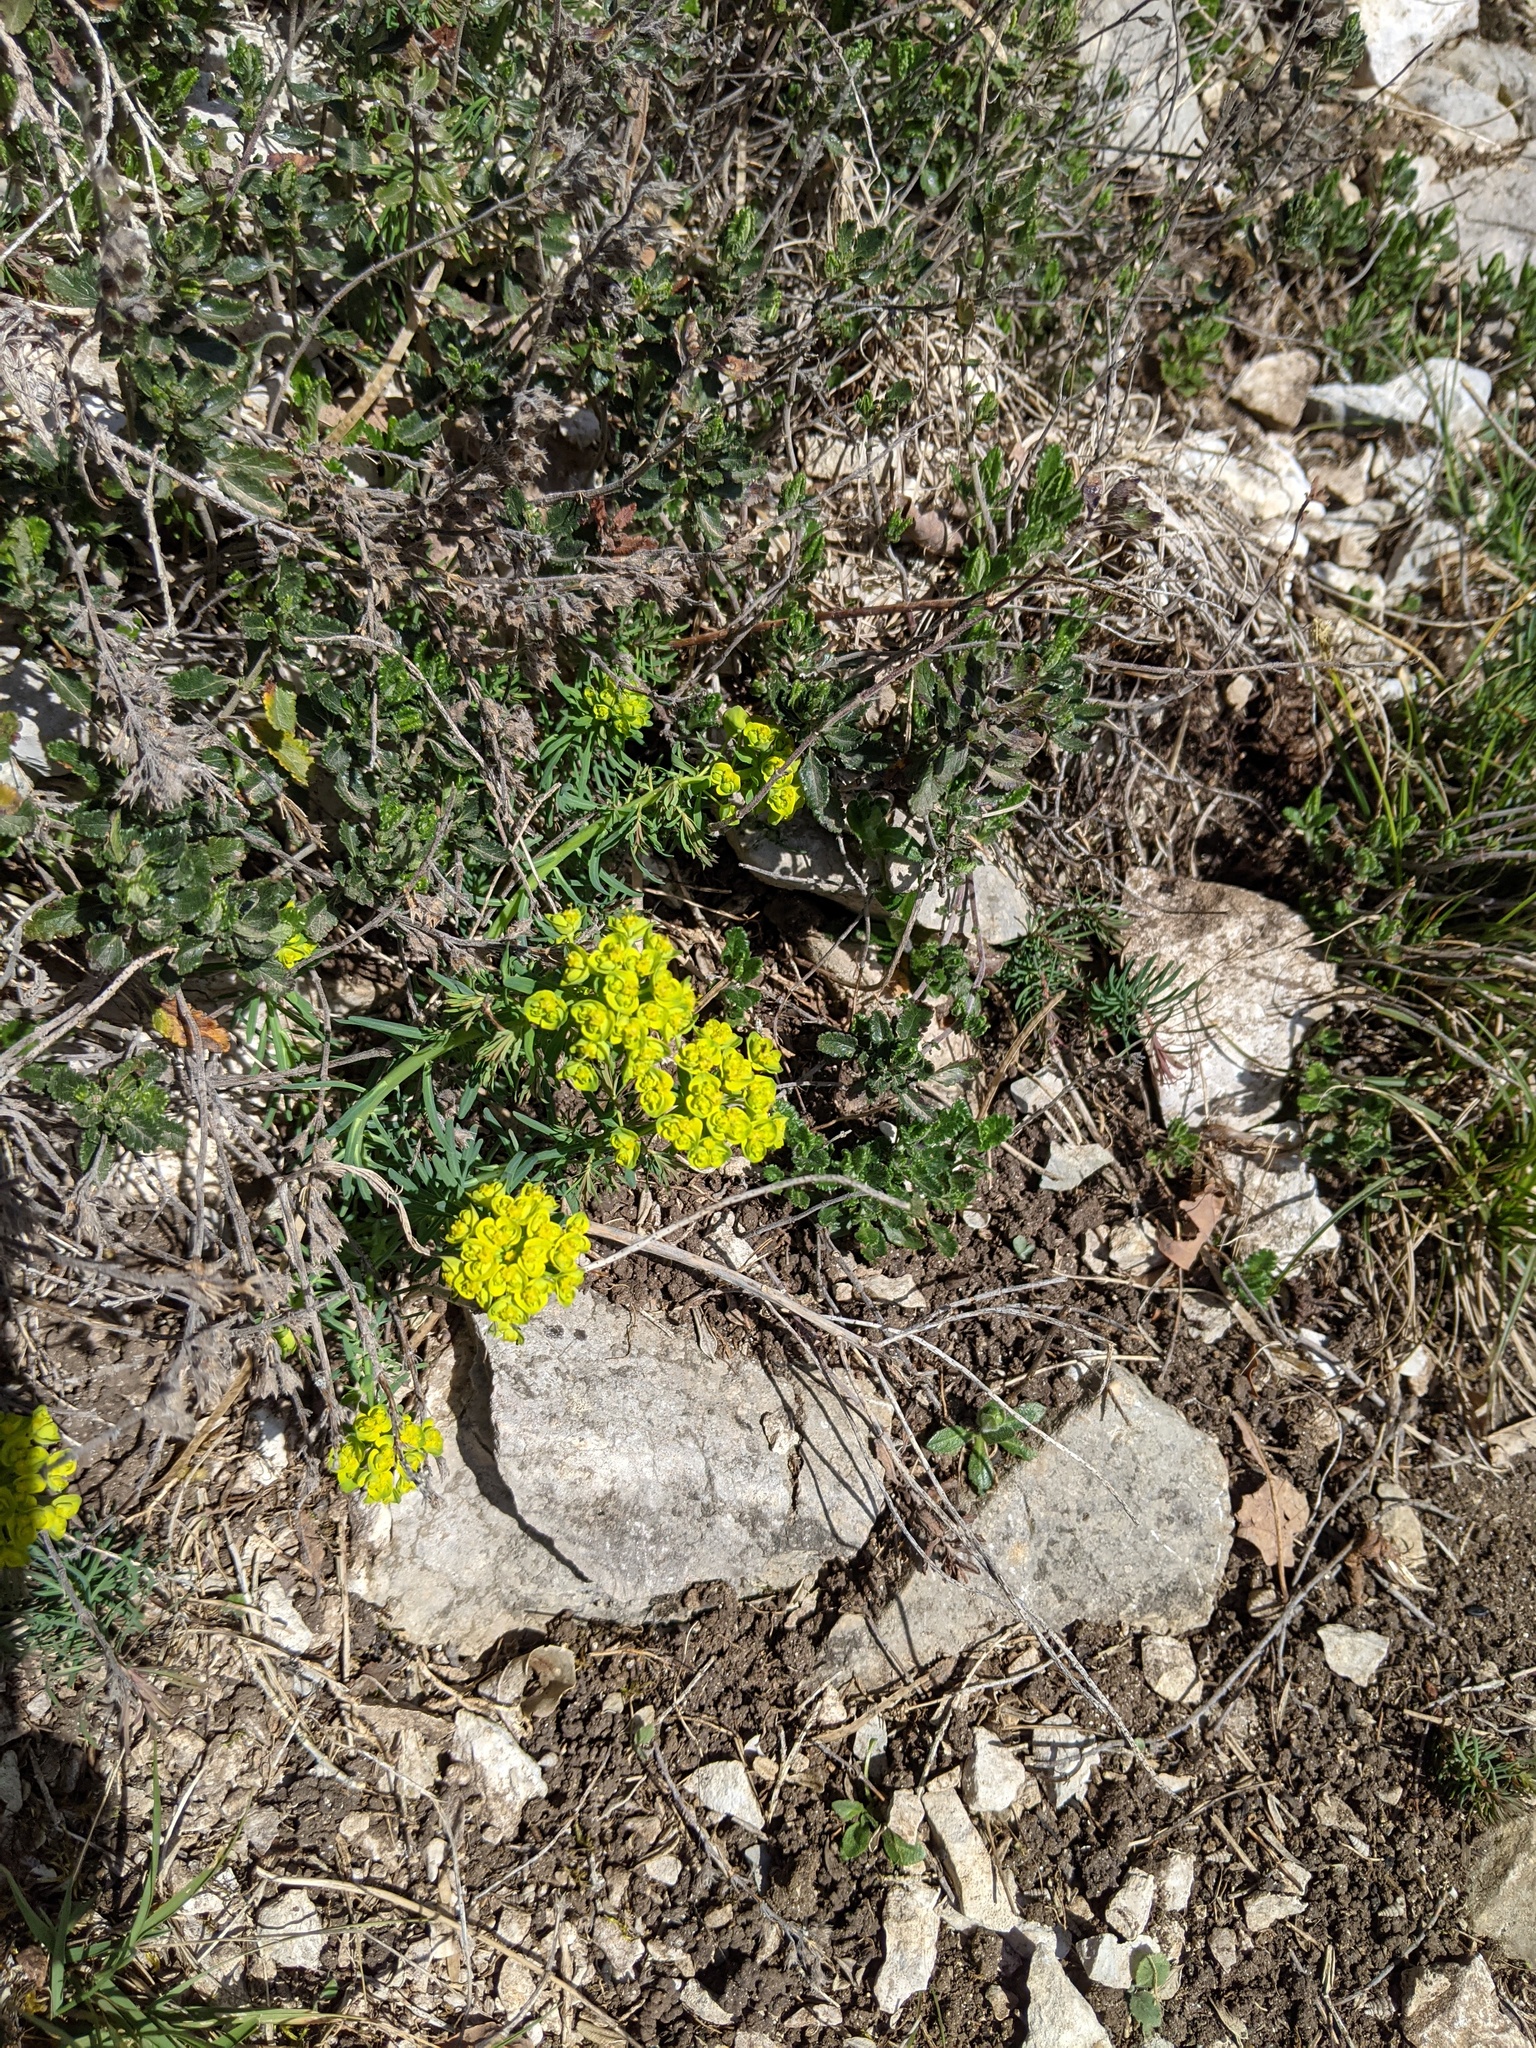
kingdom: Plantae
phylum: Tracheophyta
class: Magnoliopsida
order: Malpighiales
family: Euphorbiaceae
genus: Euphorbia
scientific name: Euphorbia cyparissias
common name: Cypress spurge
